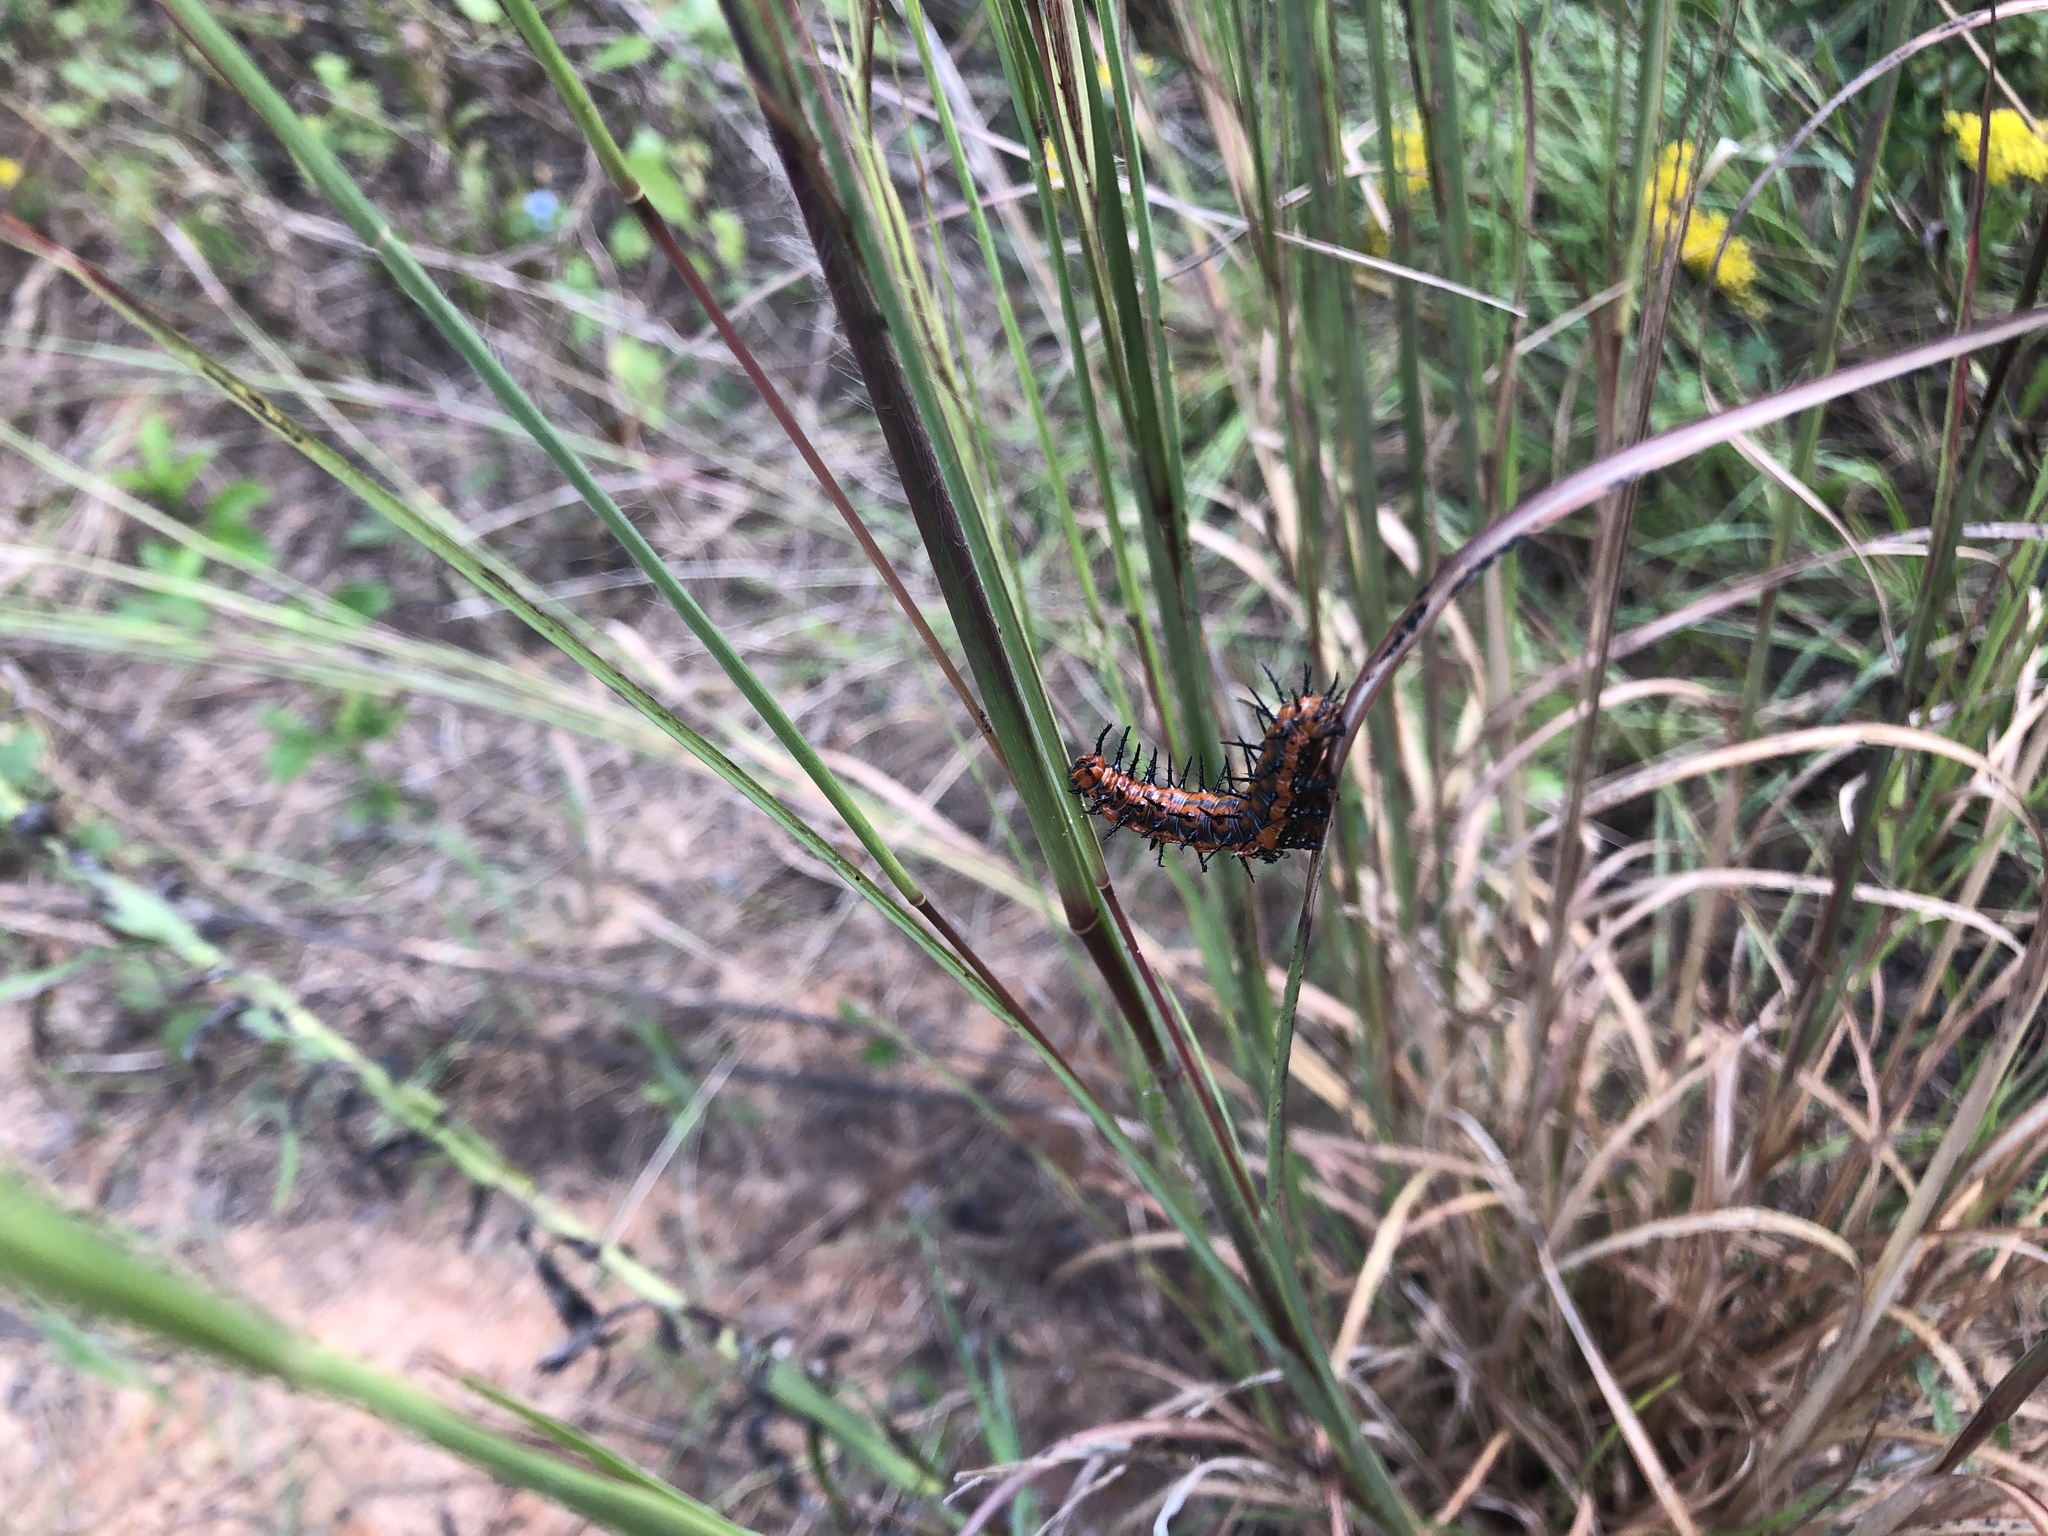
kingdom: Animalia
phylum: Arthropoda
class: Insecta
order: Lepidoptera
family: Nymphalidae
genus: Dione
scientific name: Dione vanillae
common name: Gulf fritillary
